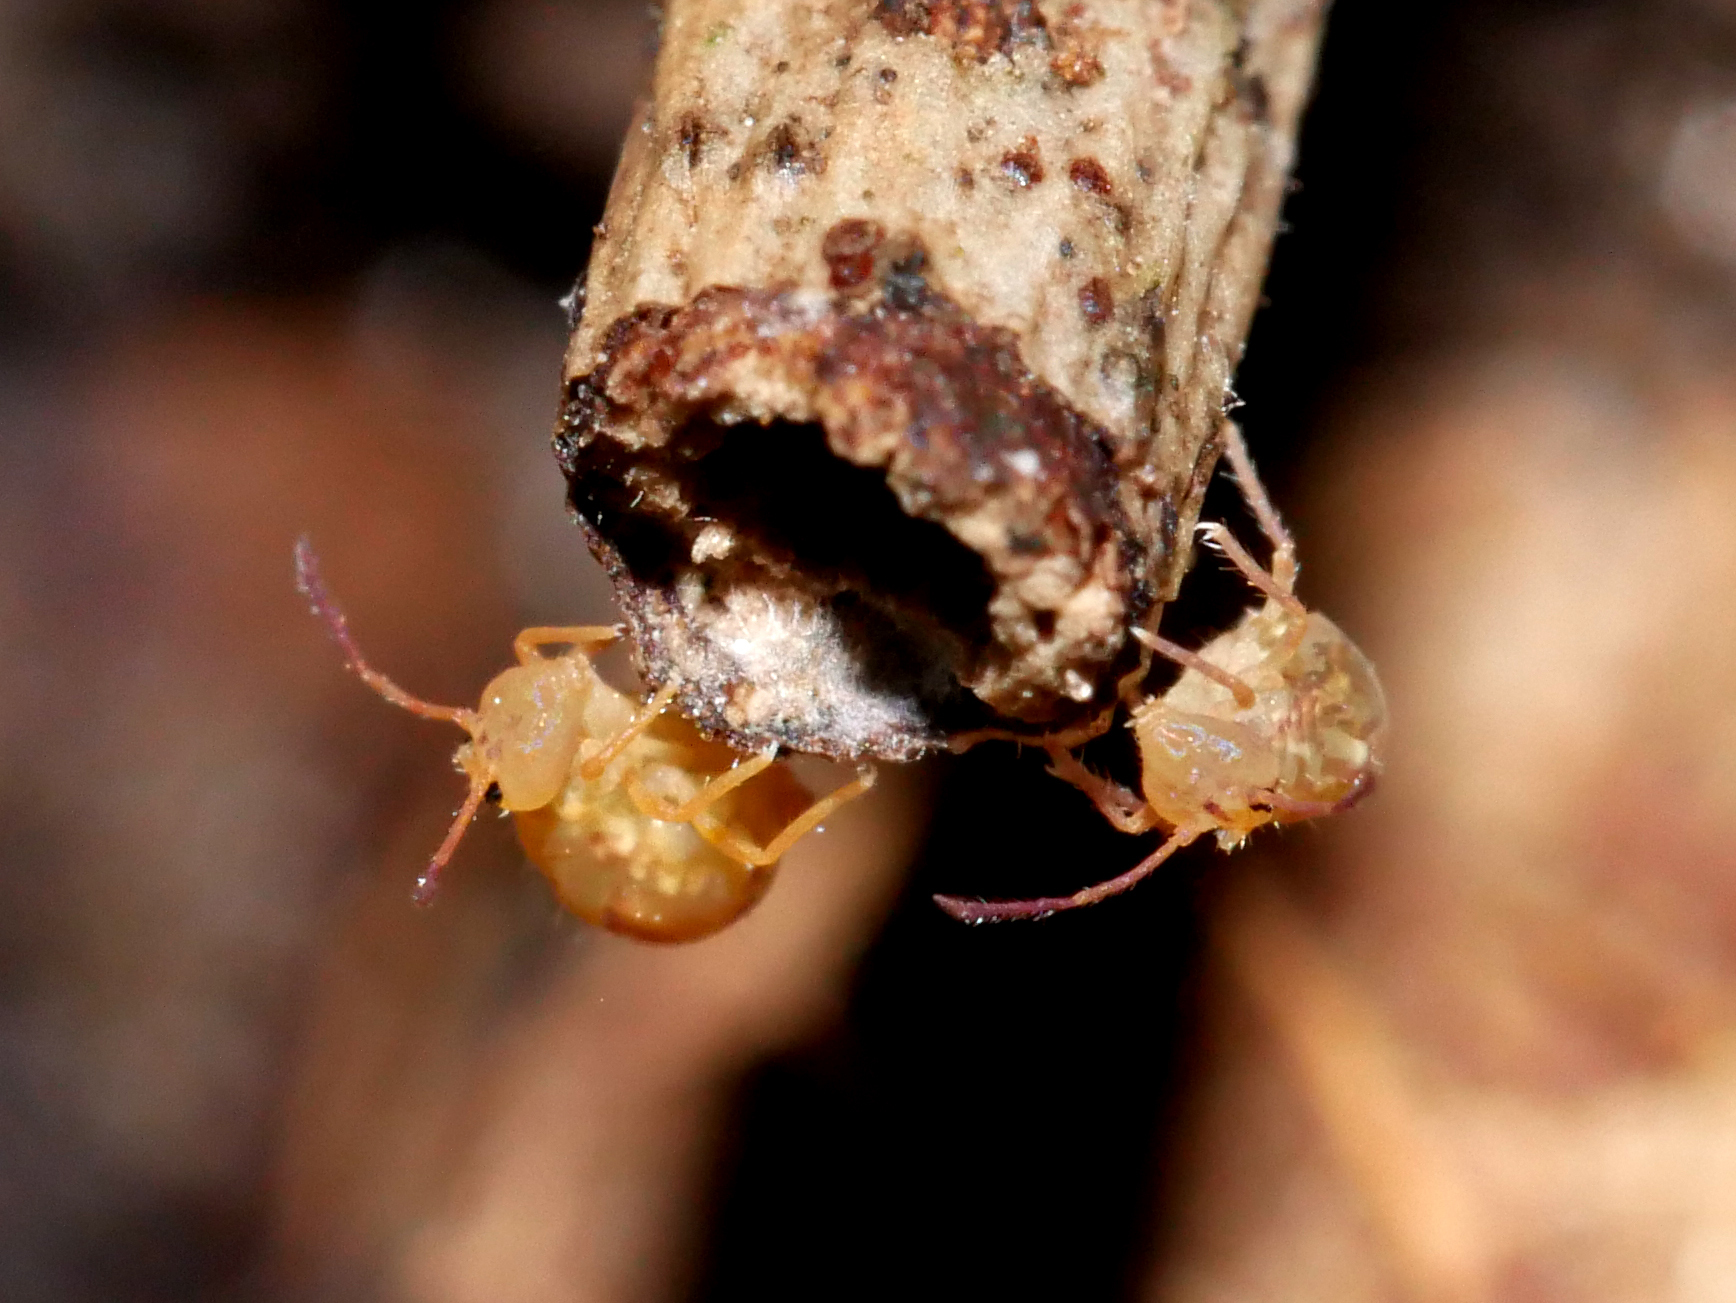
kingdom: Animalia
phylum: Arthropoda
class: Collembola
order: Symphypleona
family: Dicyrtomidae
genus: Dicyrtomina
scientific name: Dicyrtomina ornata
